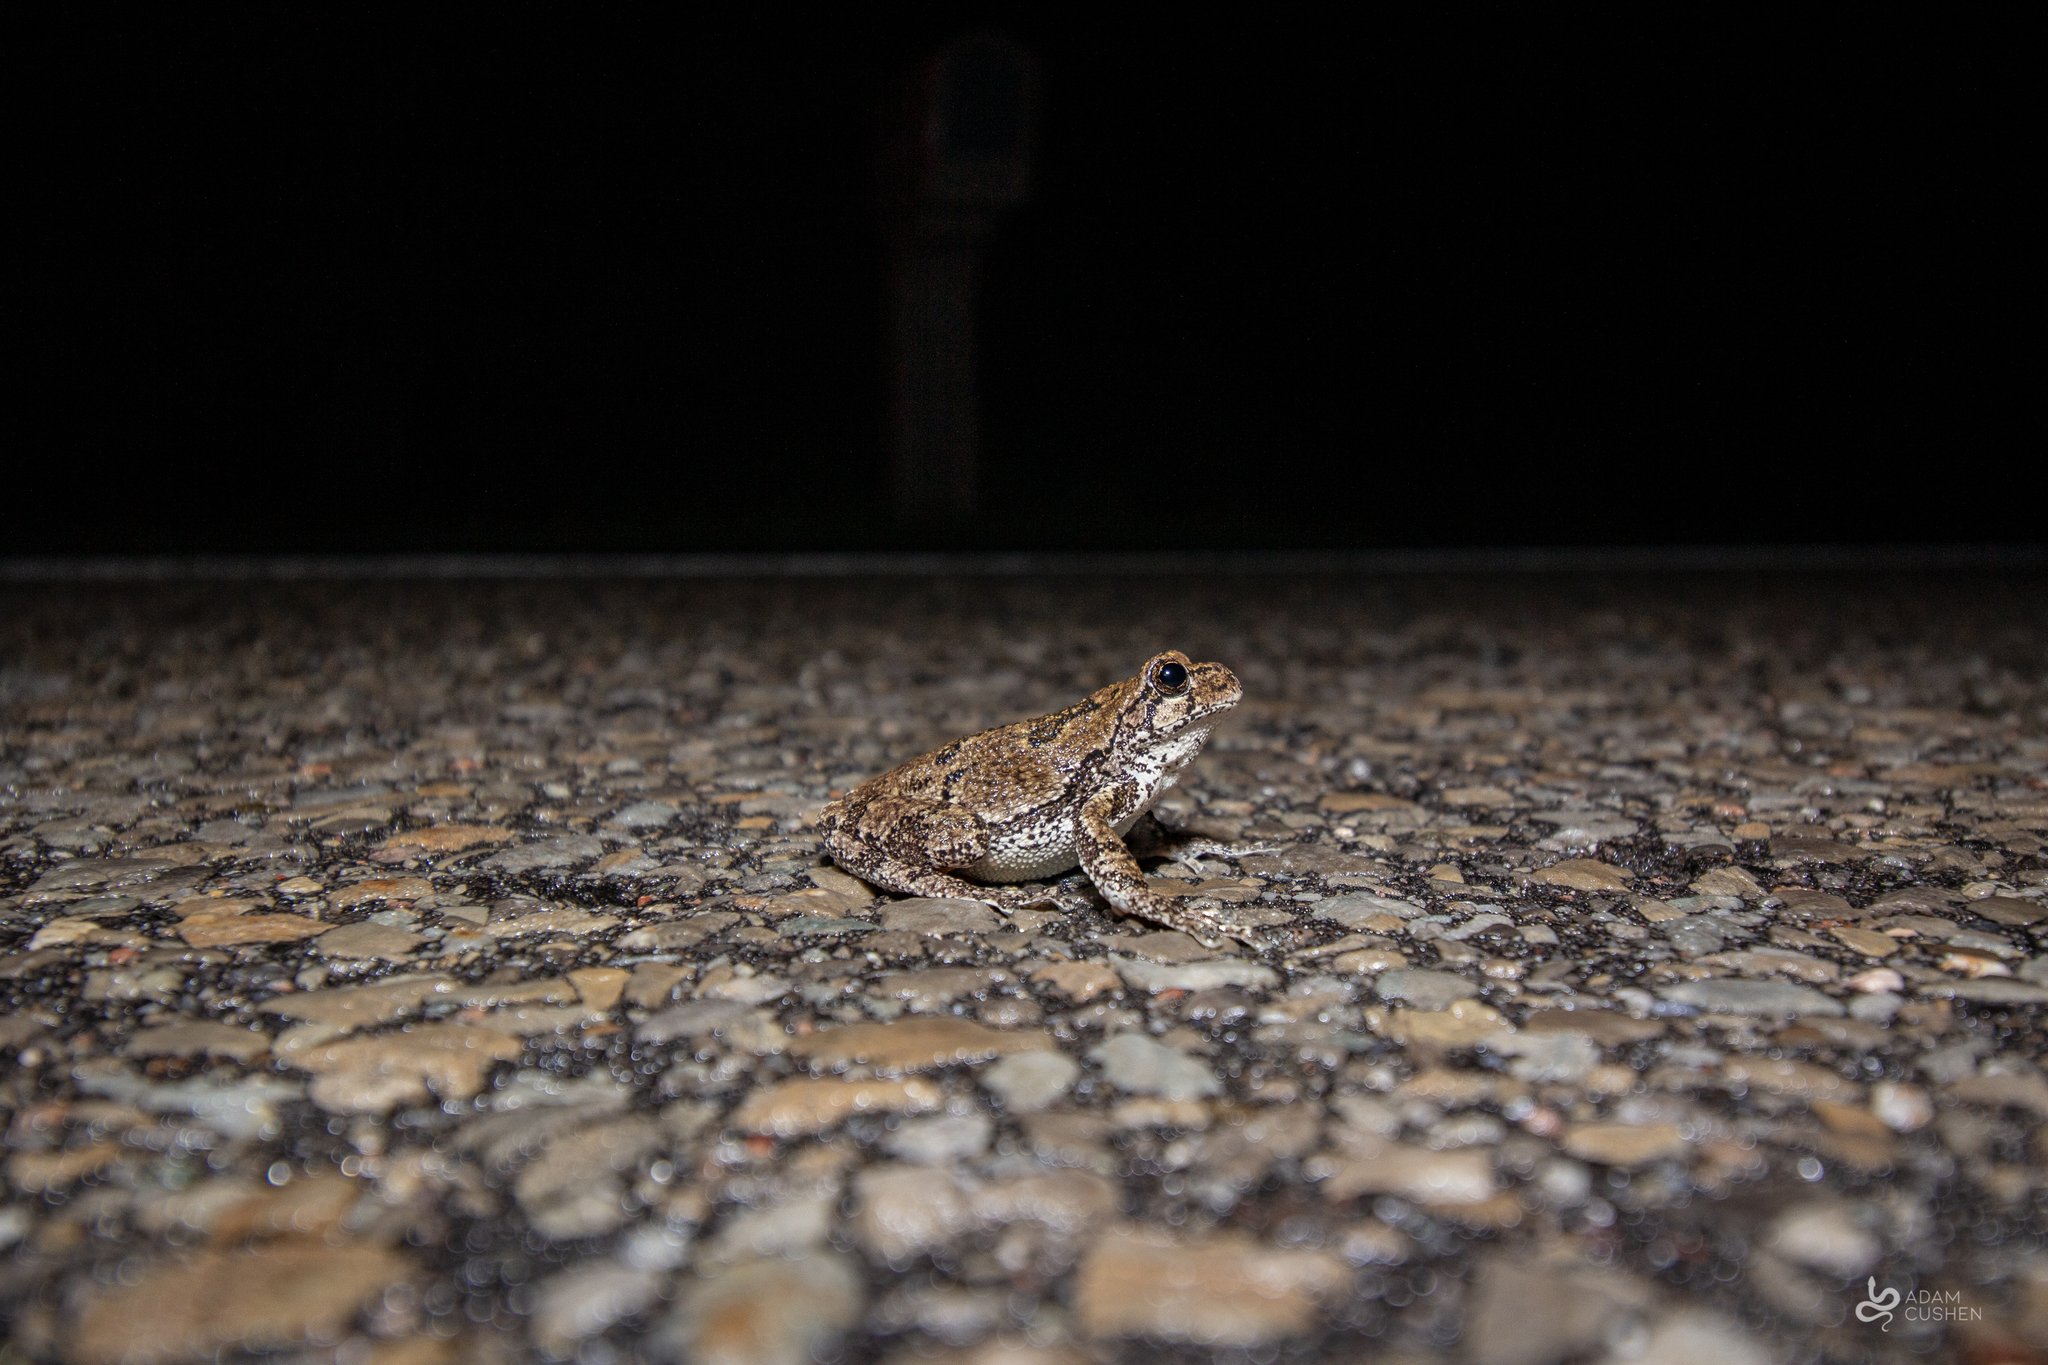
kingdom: Animalia
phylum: Chordata
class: Amphibia
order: Anura
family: Hylidae
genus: Dryophytes
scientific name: Dryophytes versicolor
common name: Gray treefrog
